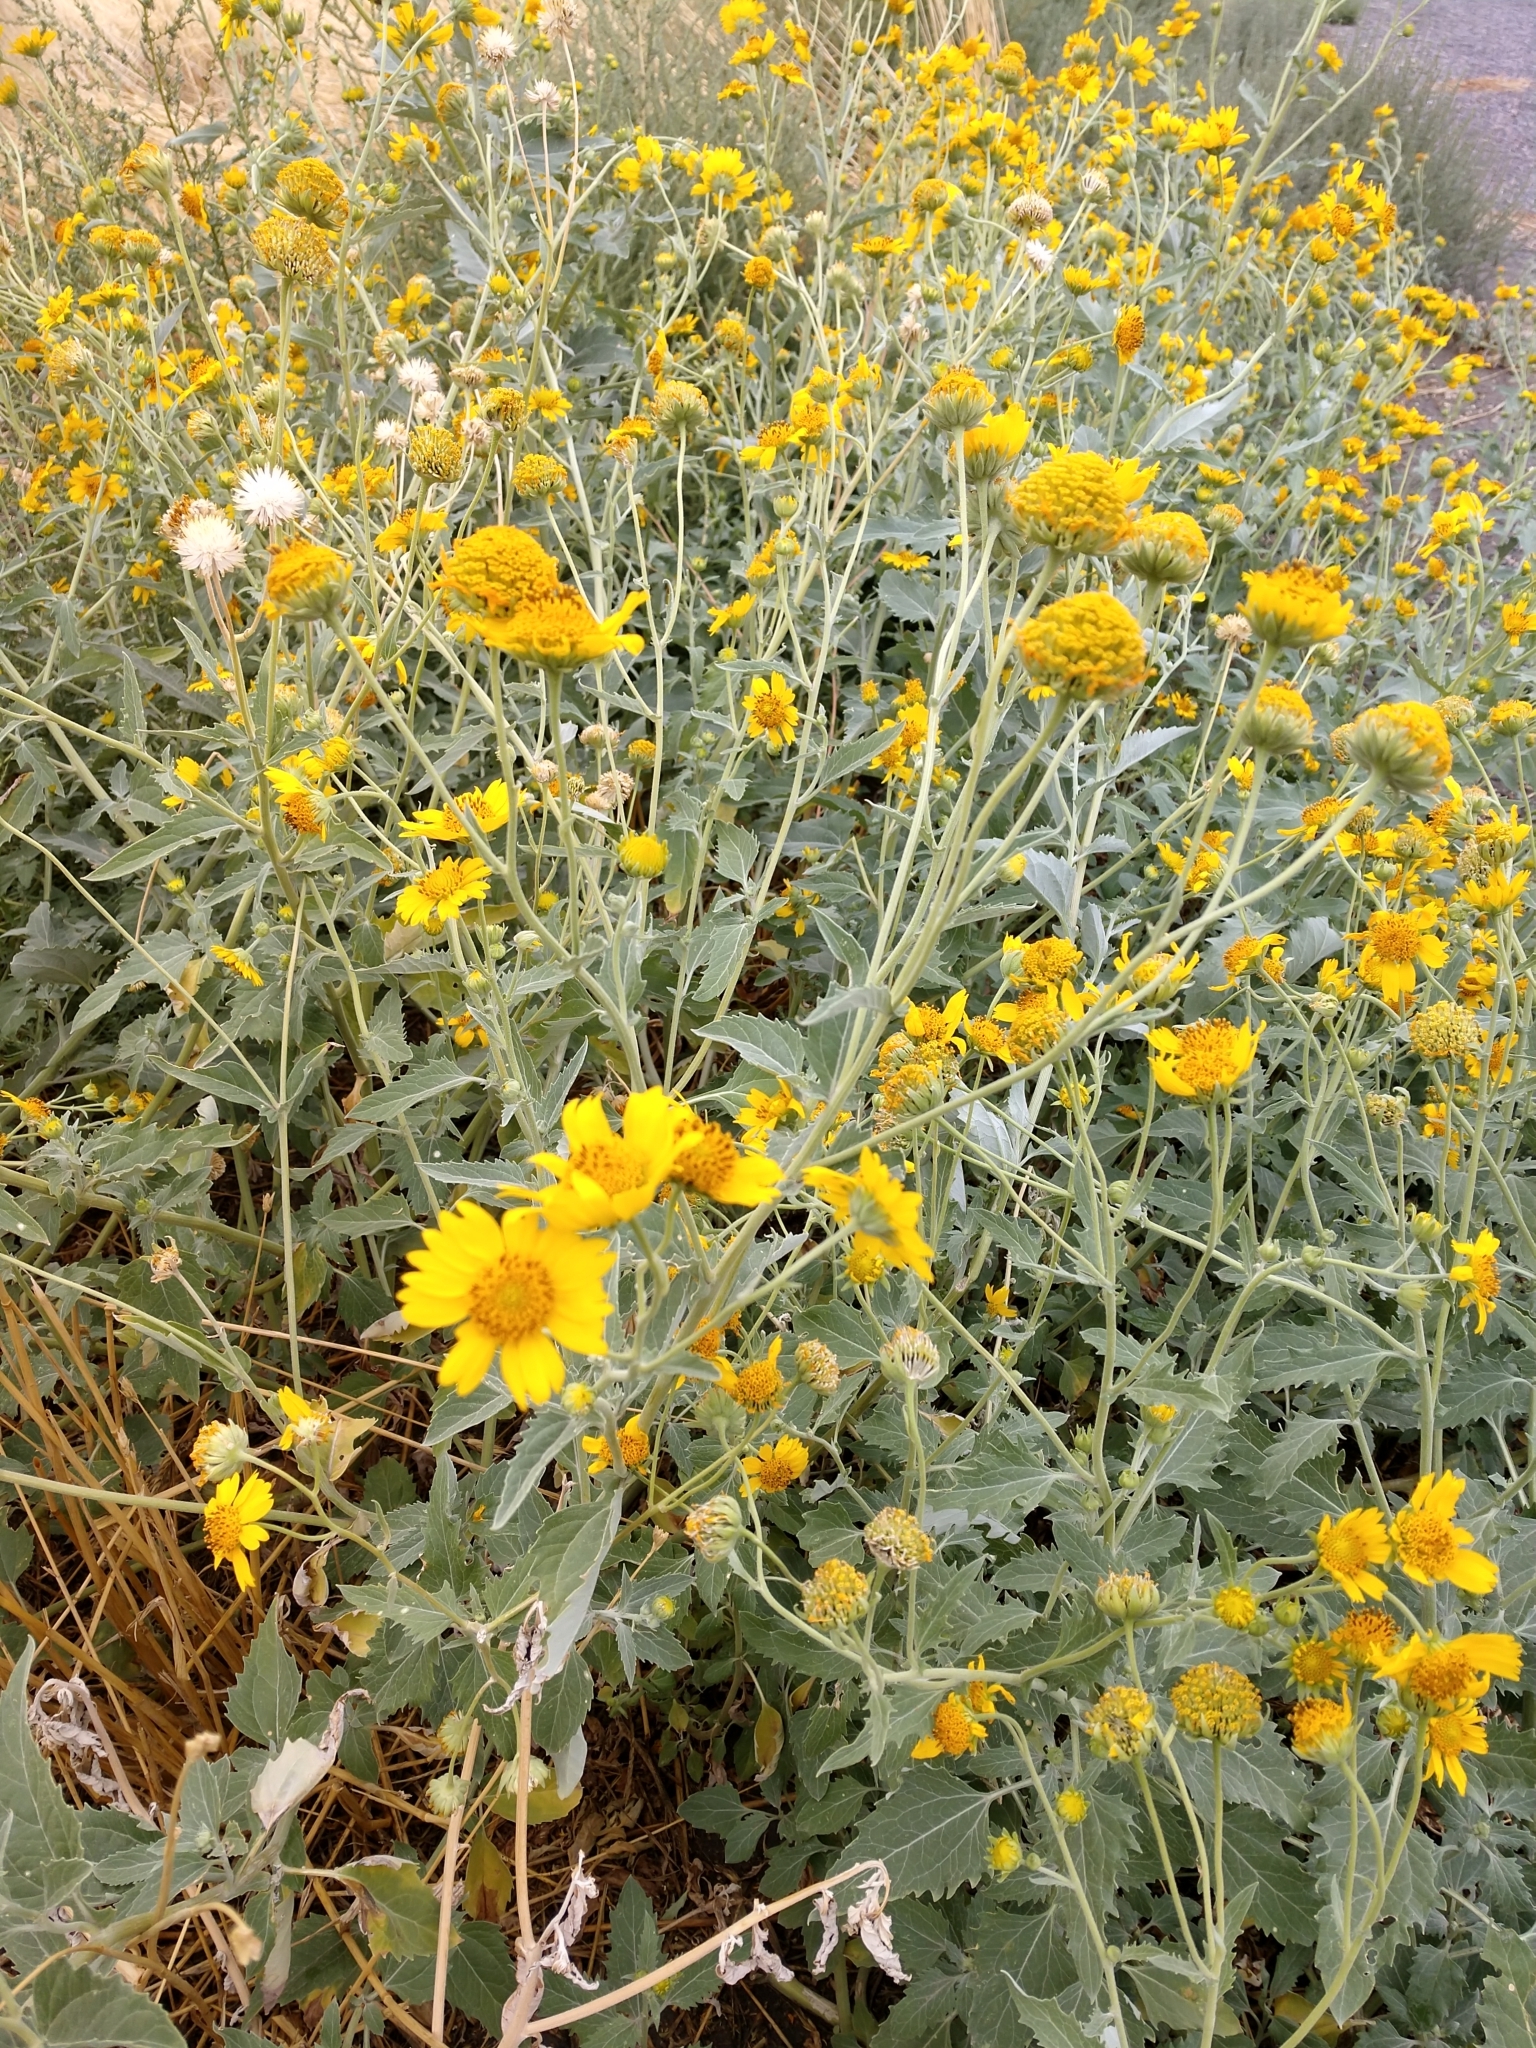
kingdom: Plantae
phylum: Tracheophyta
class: Magnoliopsida
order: Asterales
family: Asteraceae
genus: Verbesina
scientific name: Verbesina encelioides
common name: Golden crownbeard
